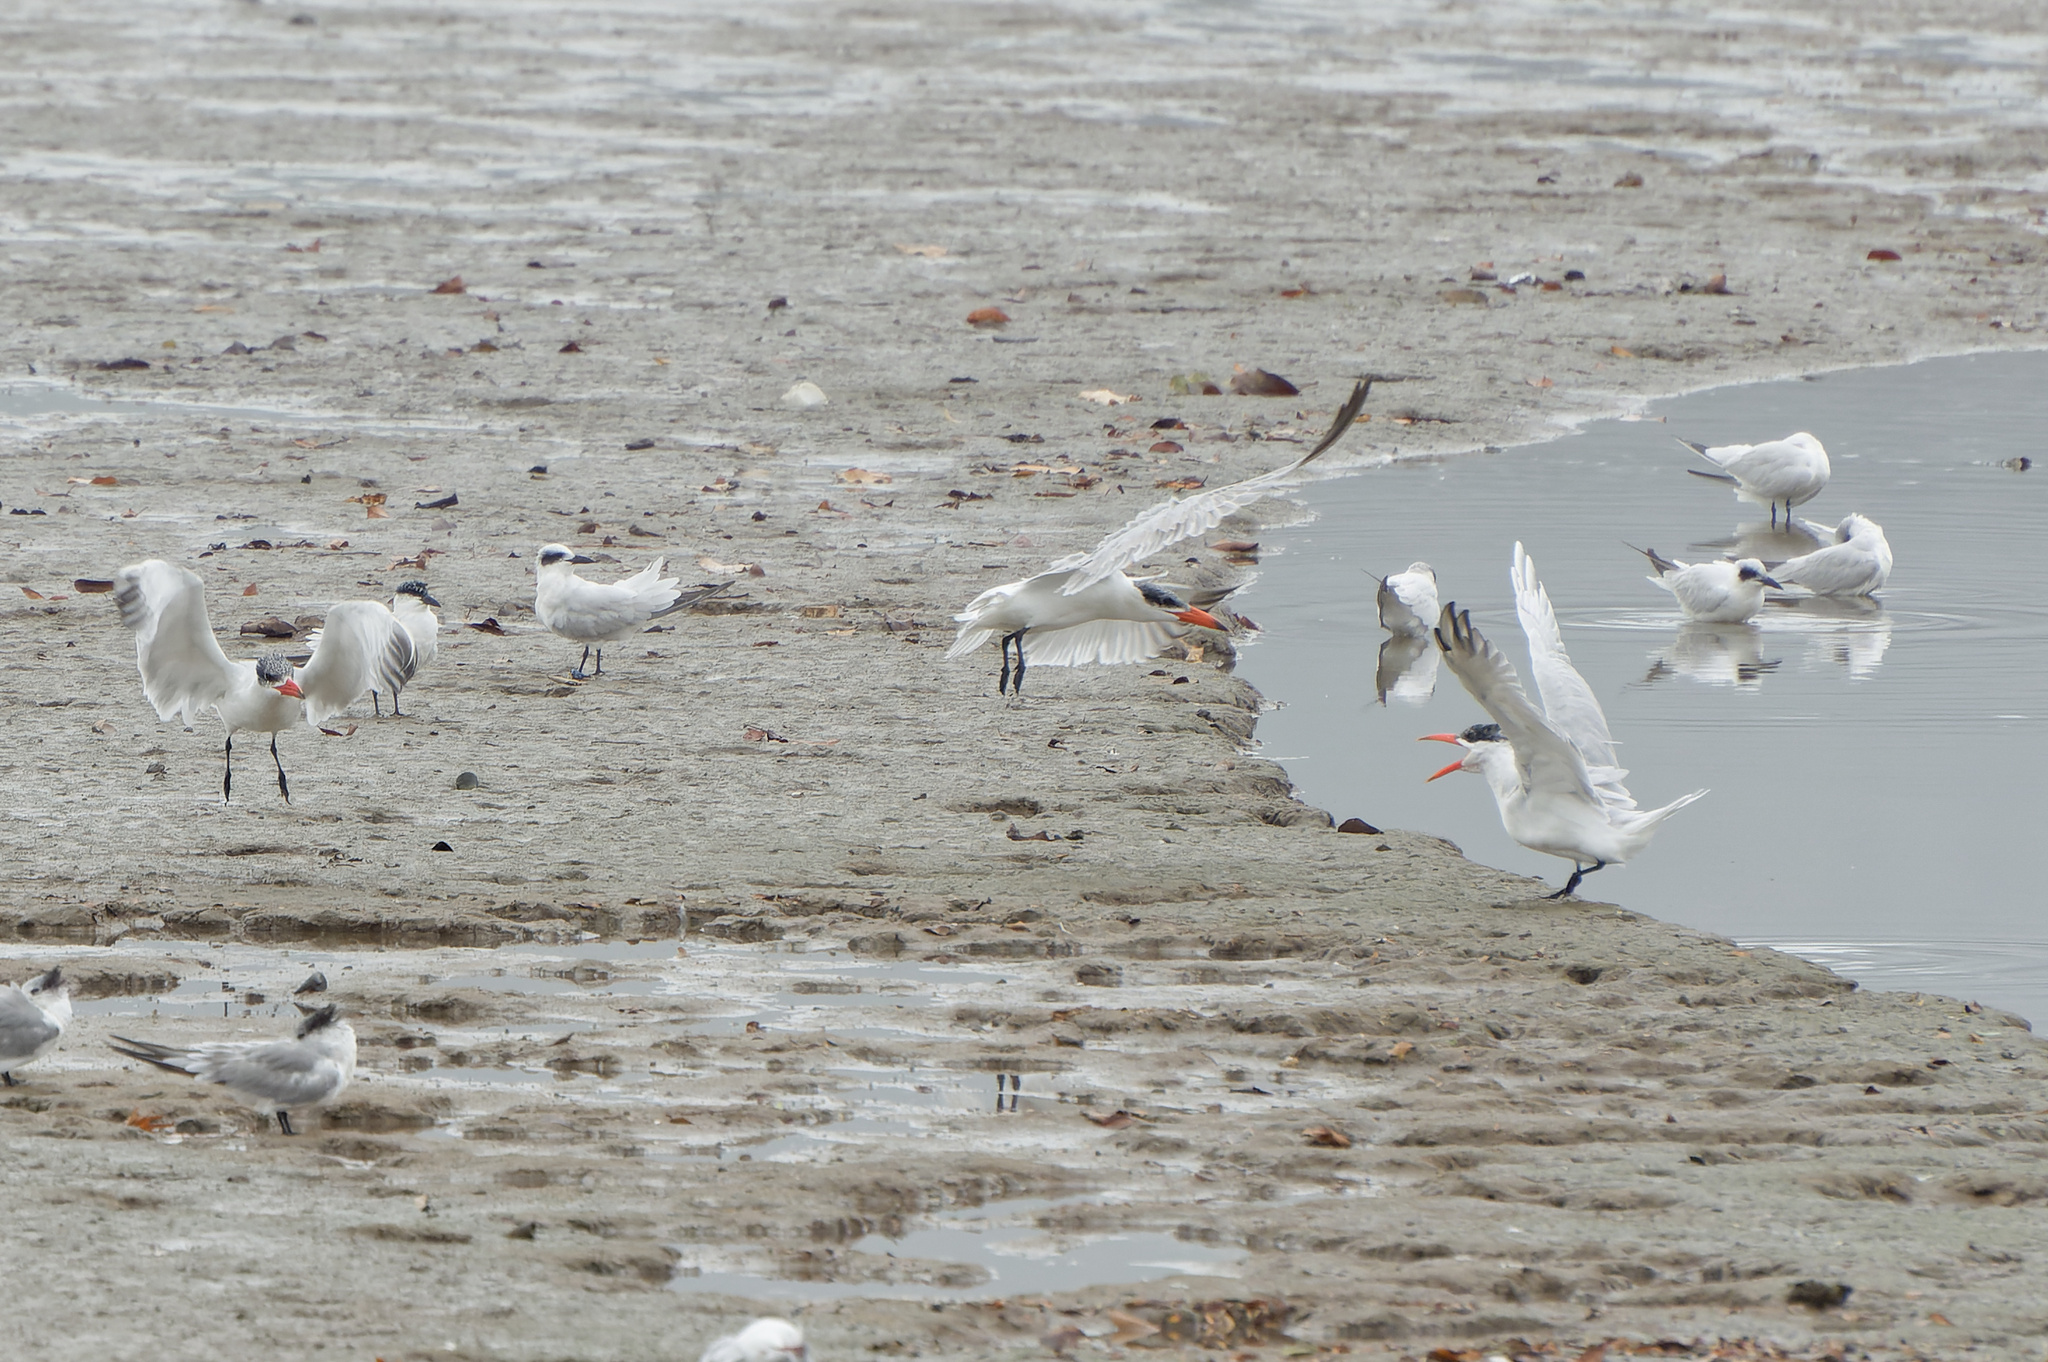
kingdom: Animalia
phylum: Chordata
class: Aves
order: Charadriiformes
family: Laridae
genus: Hydroprogne
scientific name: Hydroprogne caspia
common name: Caspian tern
